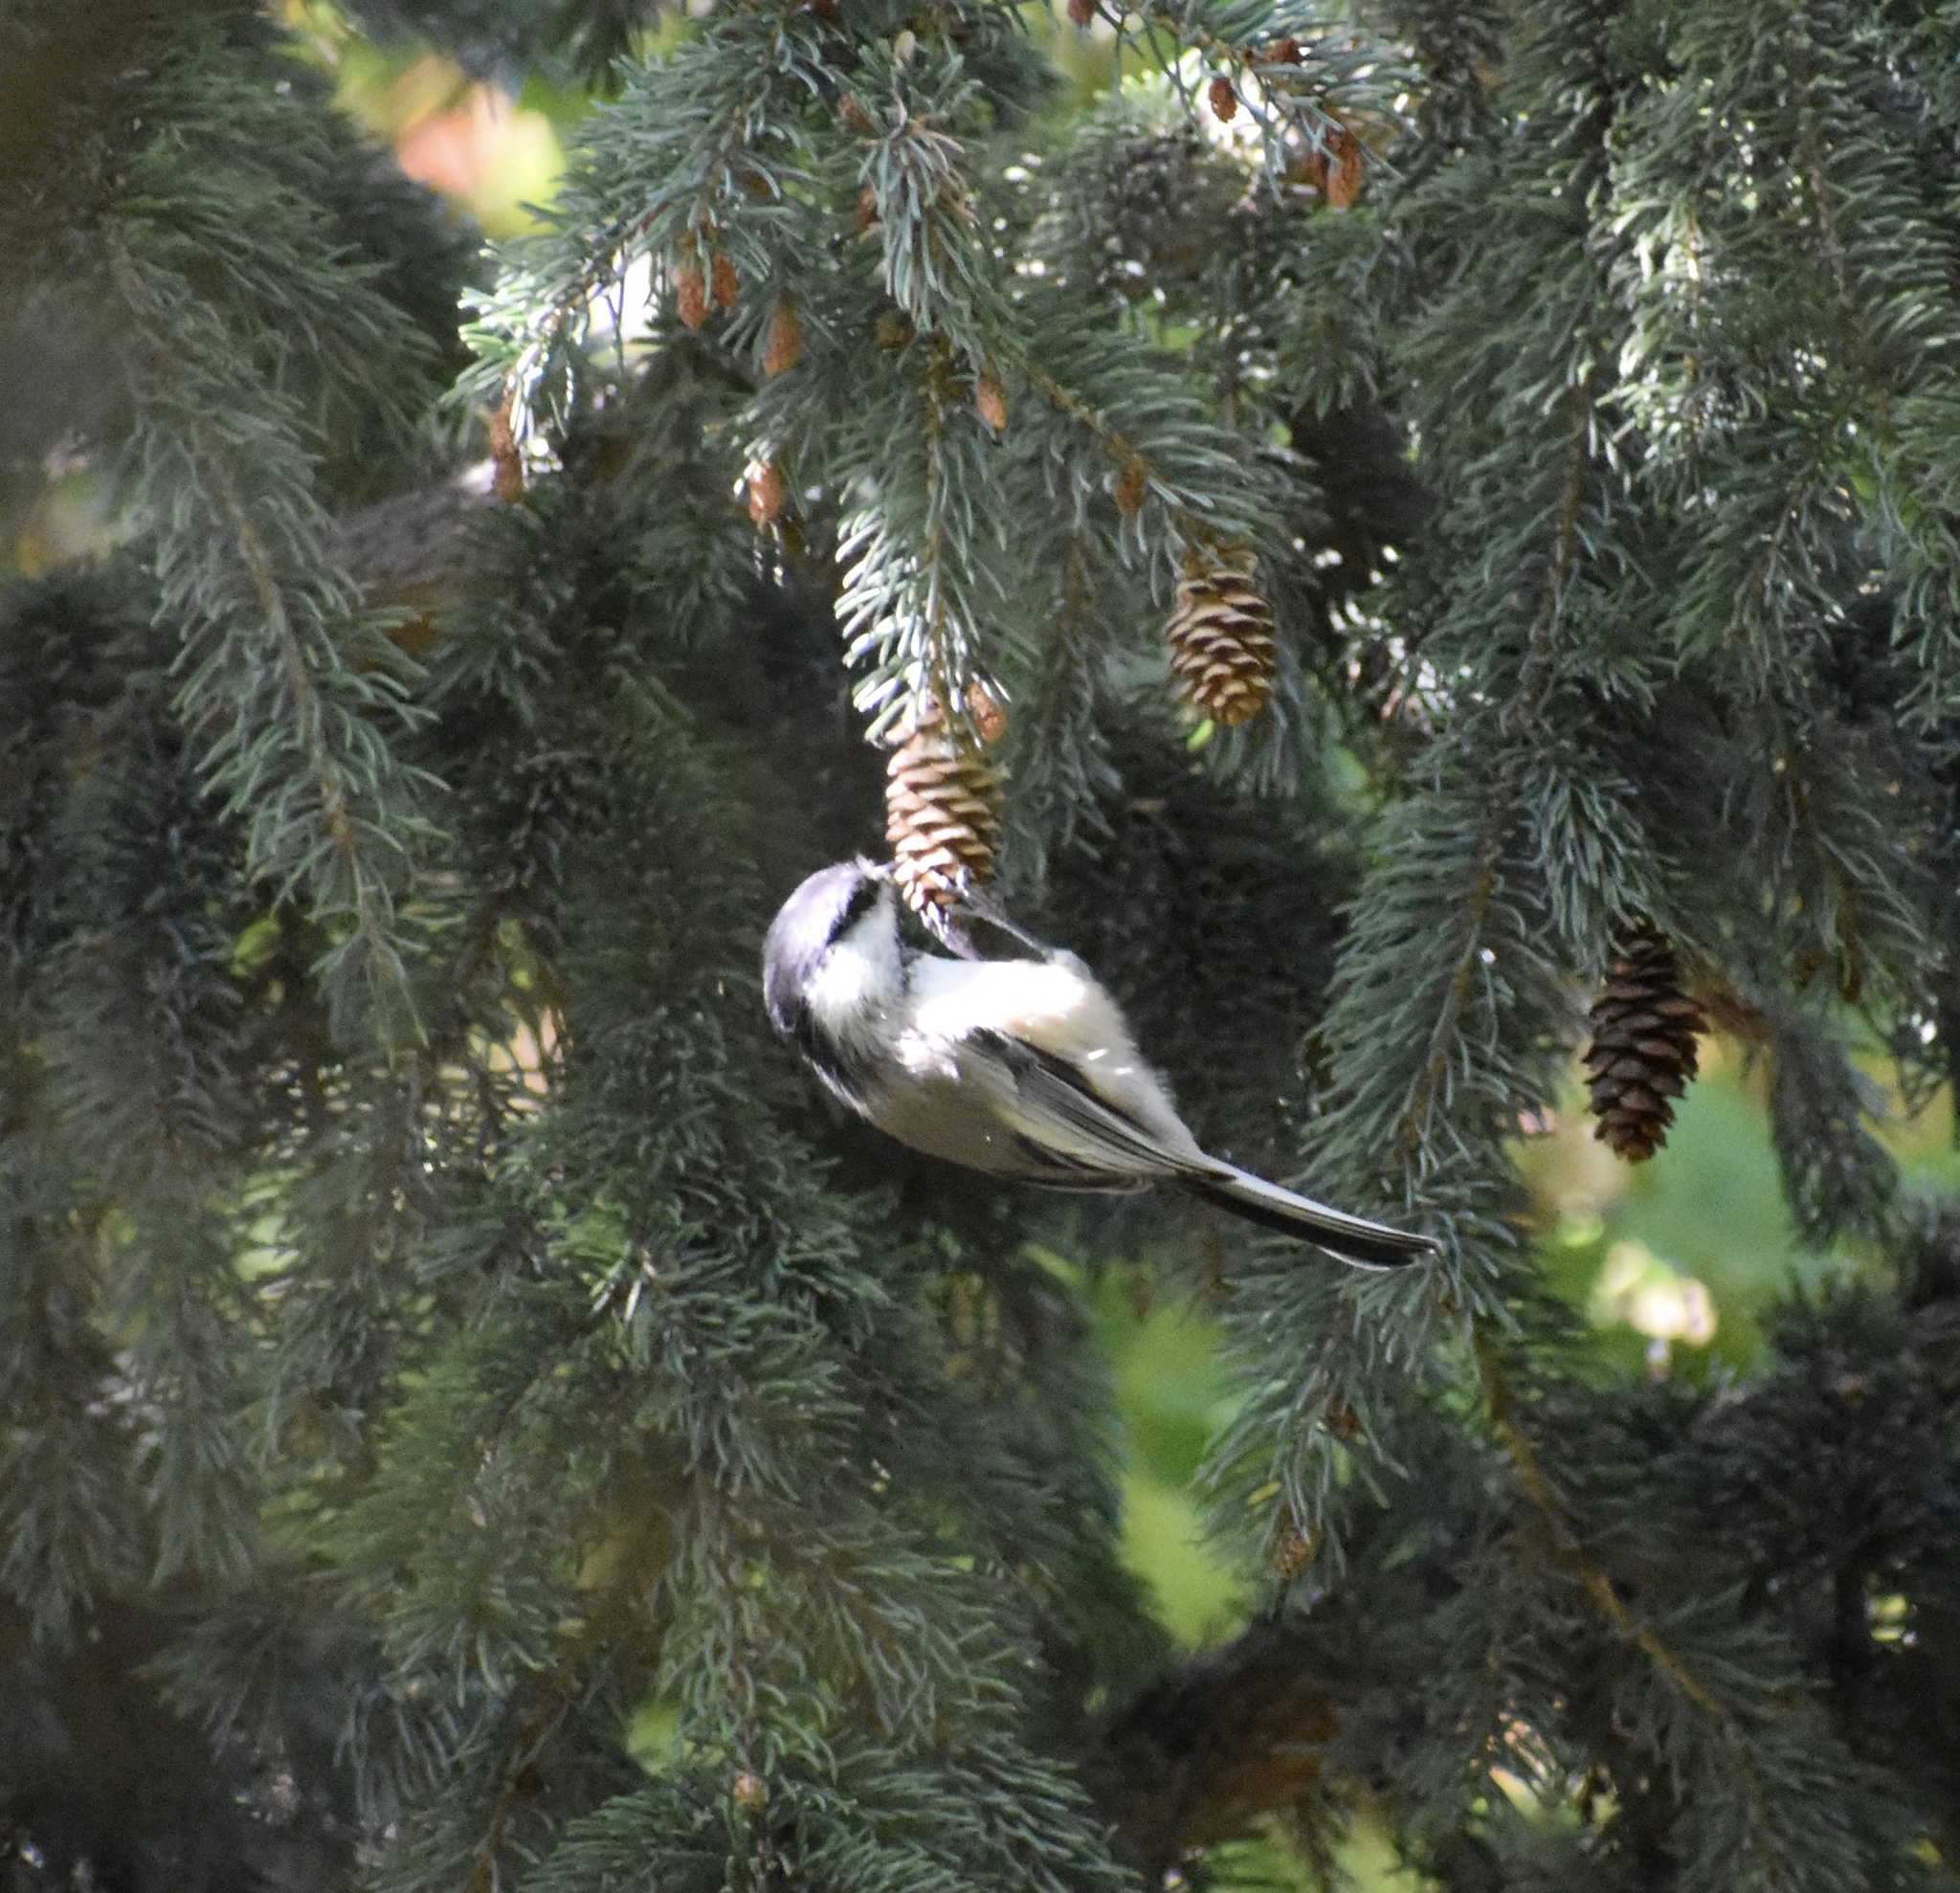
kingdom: Animalia
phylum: Chordata
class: Aves
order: Passeriformes
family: Paridae
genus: Poecile
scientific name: Poecile gambeli
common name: Mountain chickadee
